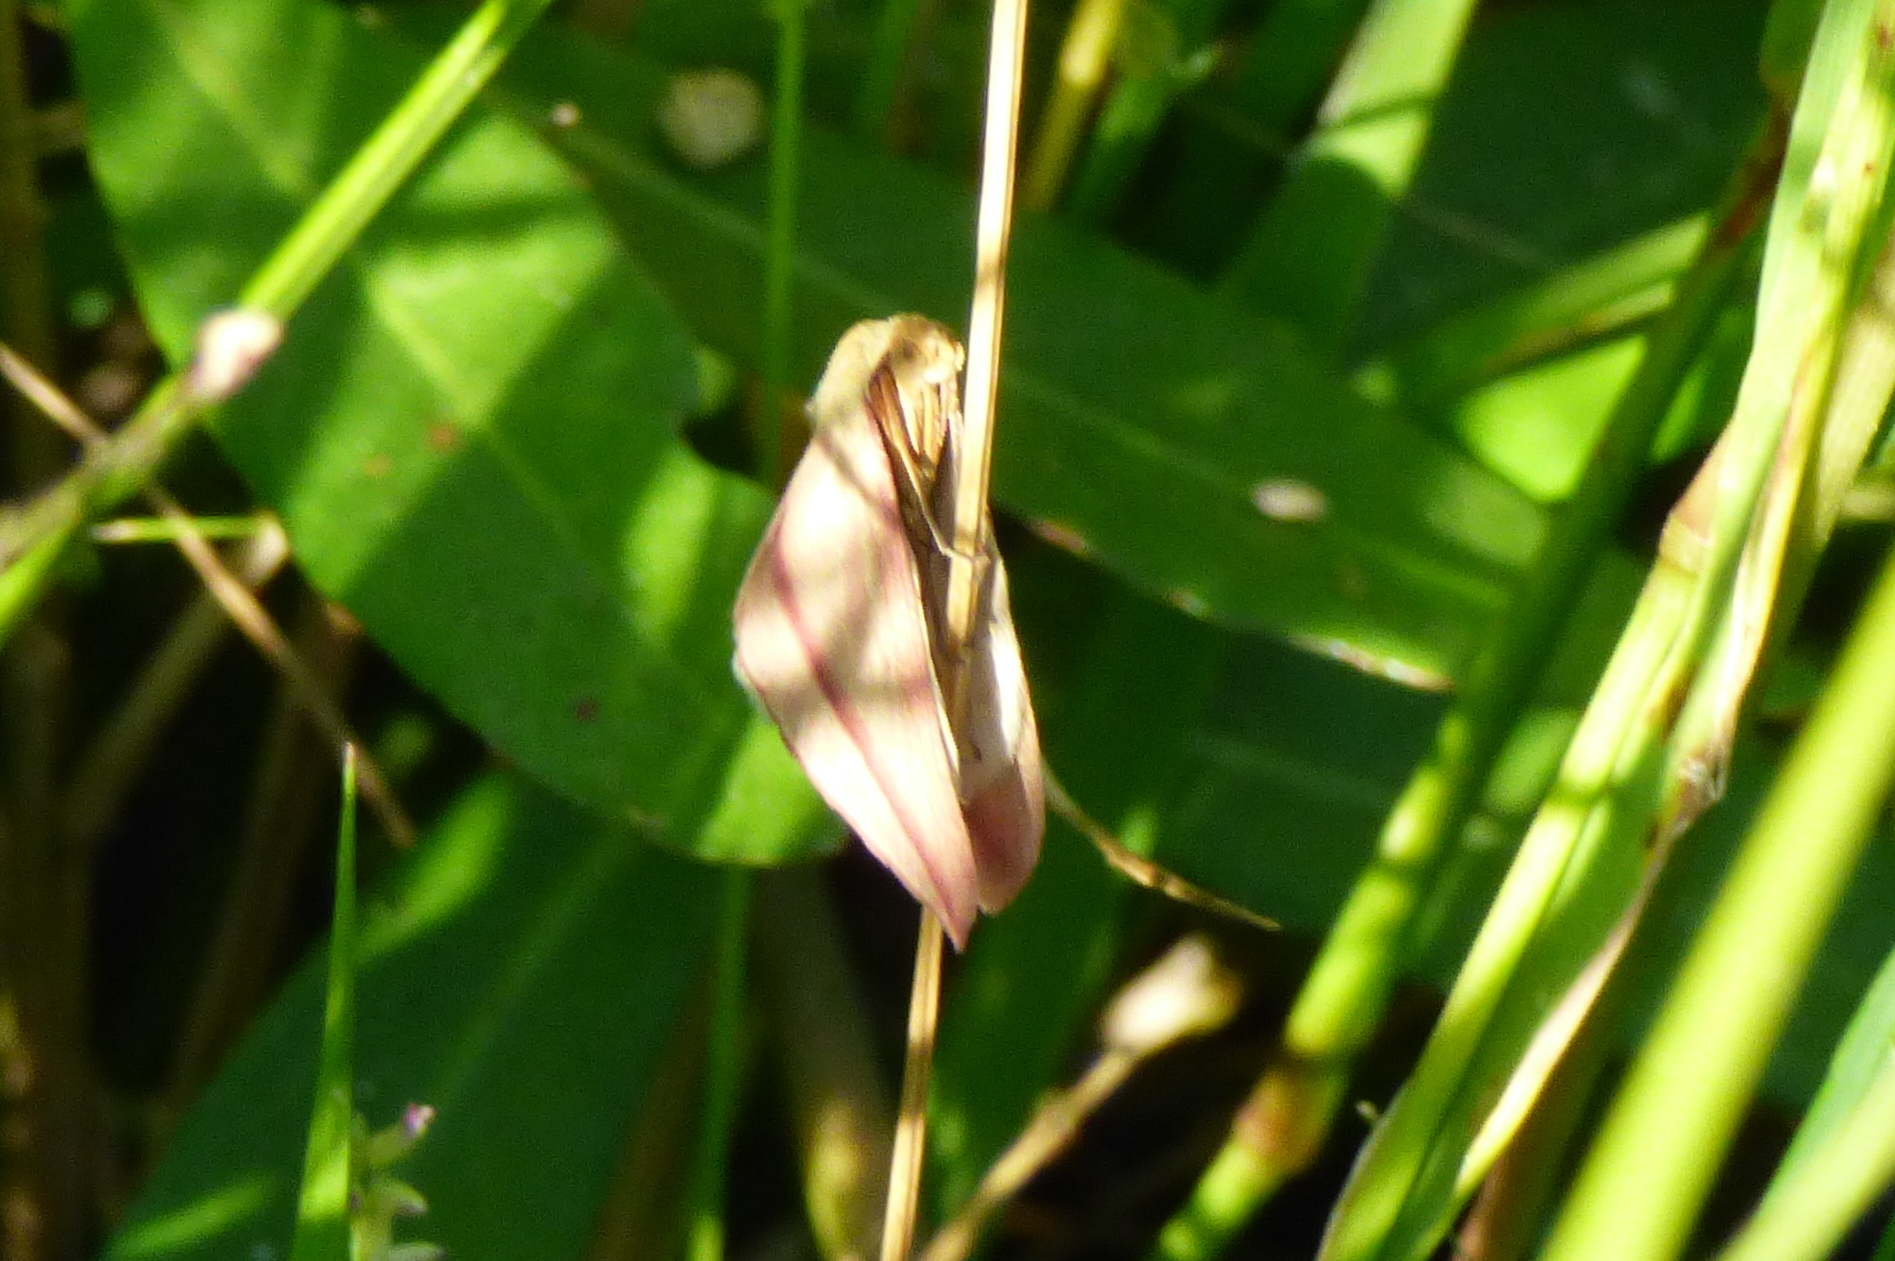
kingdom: Animalia
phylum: Arthropoda
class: Insecta
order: Lepidoptera
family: Geometridae
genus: Rhodometra
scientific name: Rhodometra sacraria
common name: Vestal
